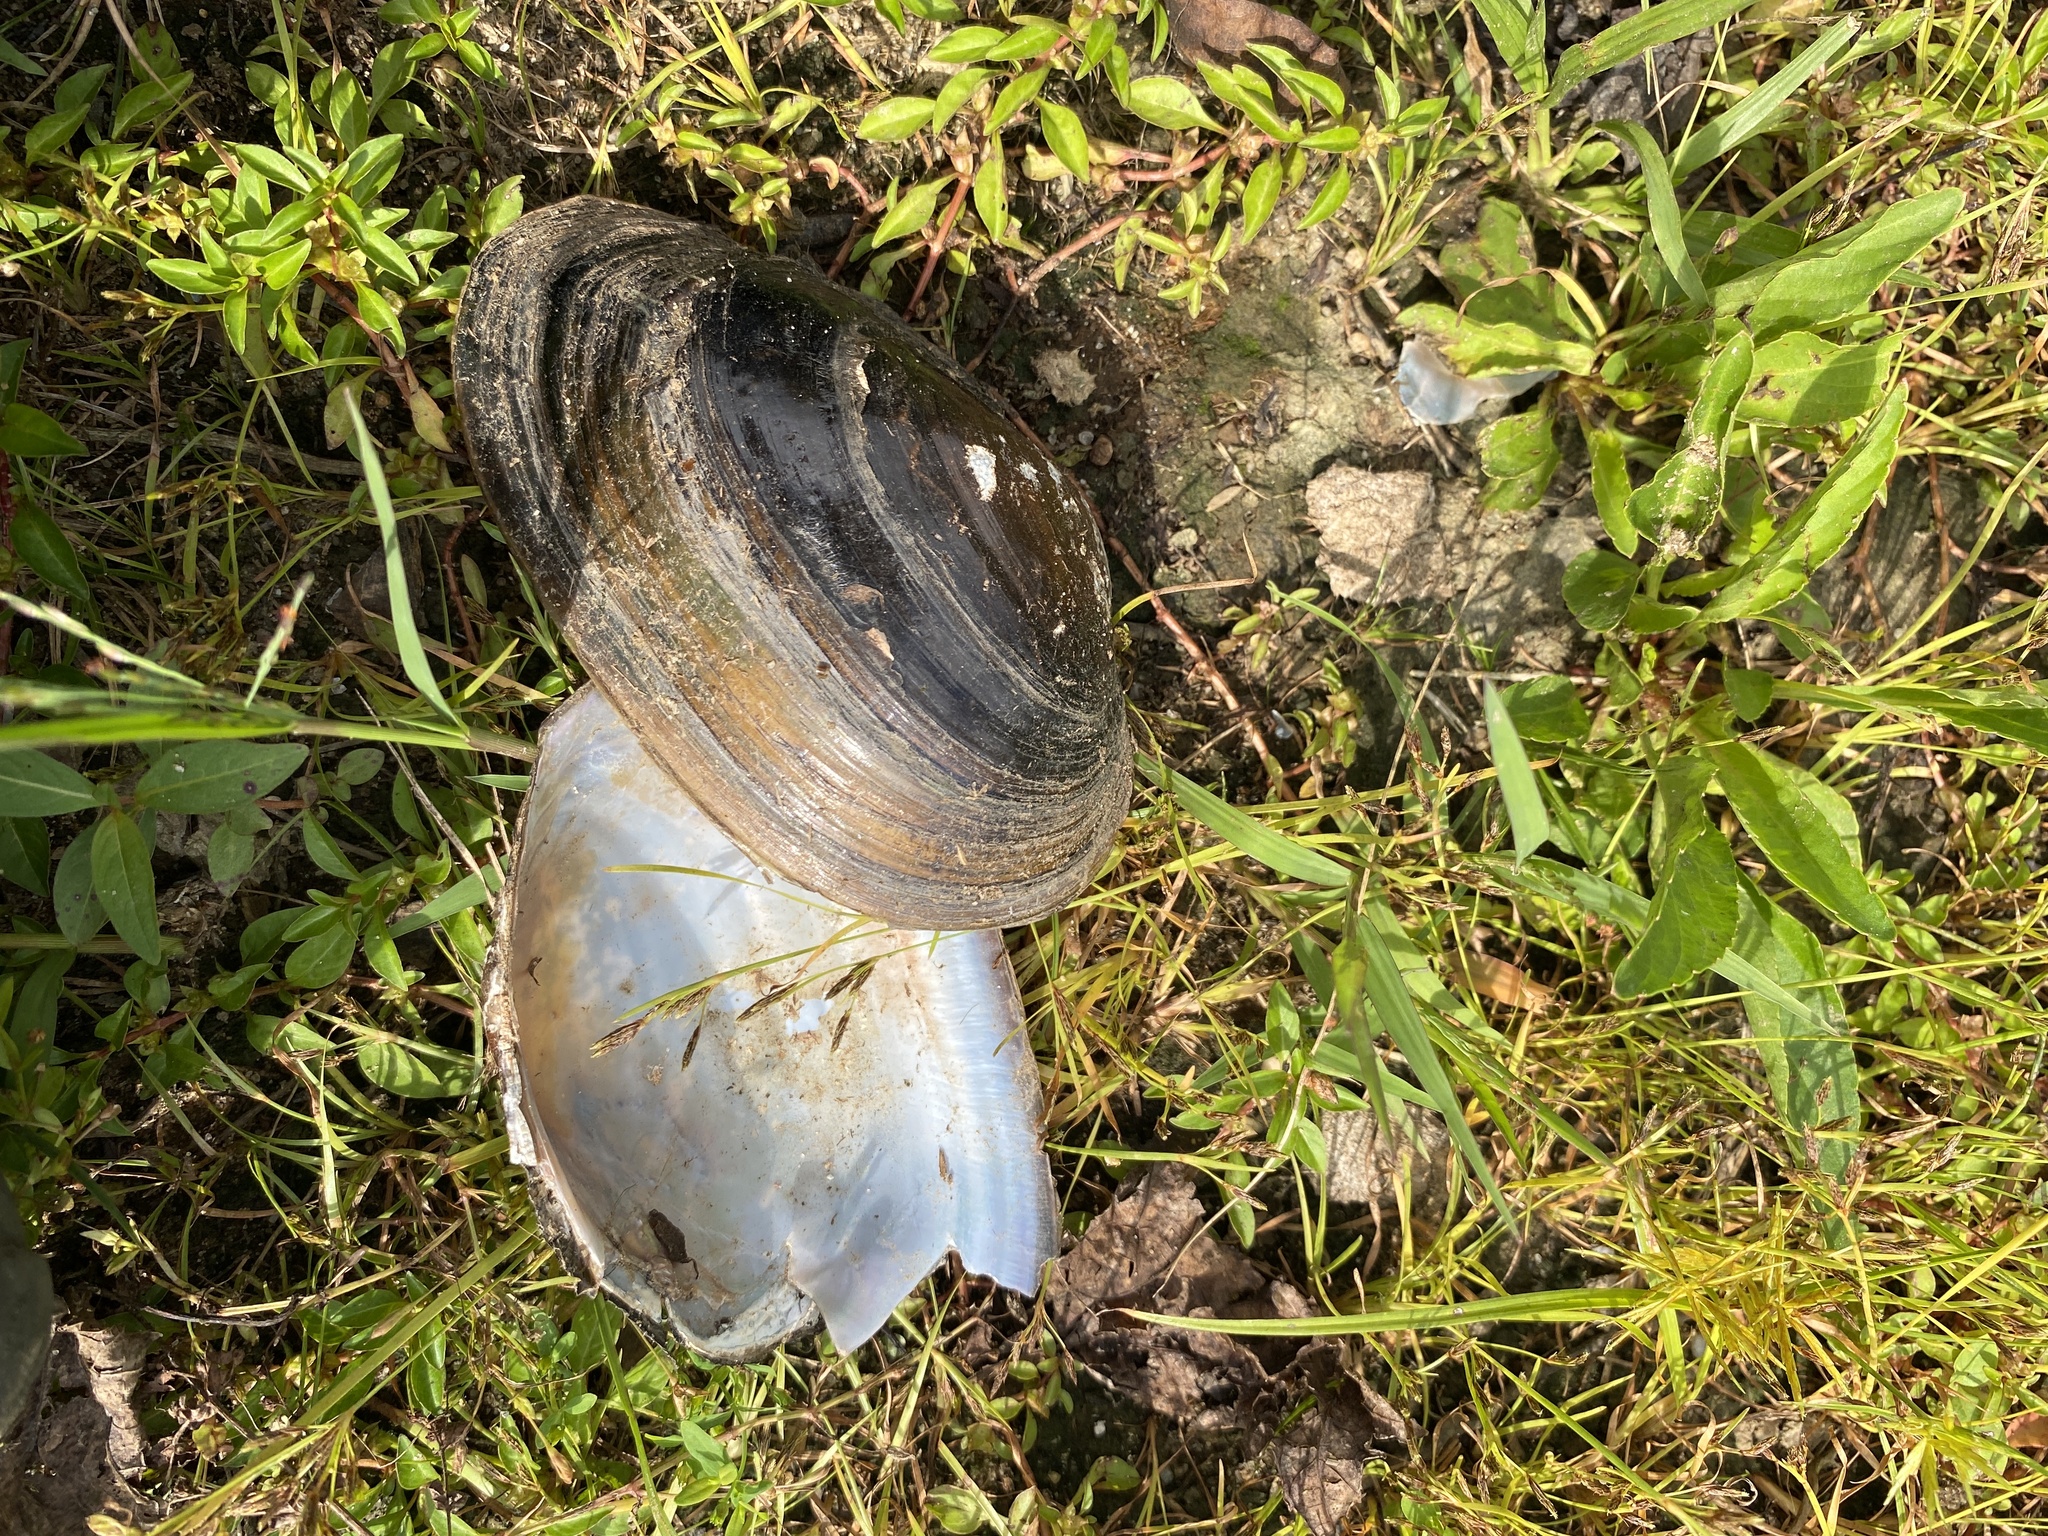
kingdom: Animalia
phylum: Mollusca
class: Bivalvia
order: Unionida
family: Unionidae
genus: Pyganodon
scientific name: Pyganodon cataracta
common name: Eastern floater
